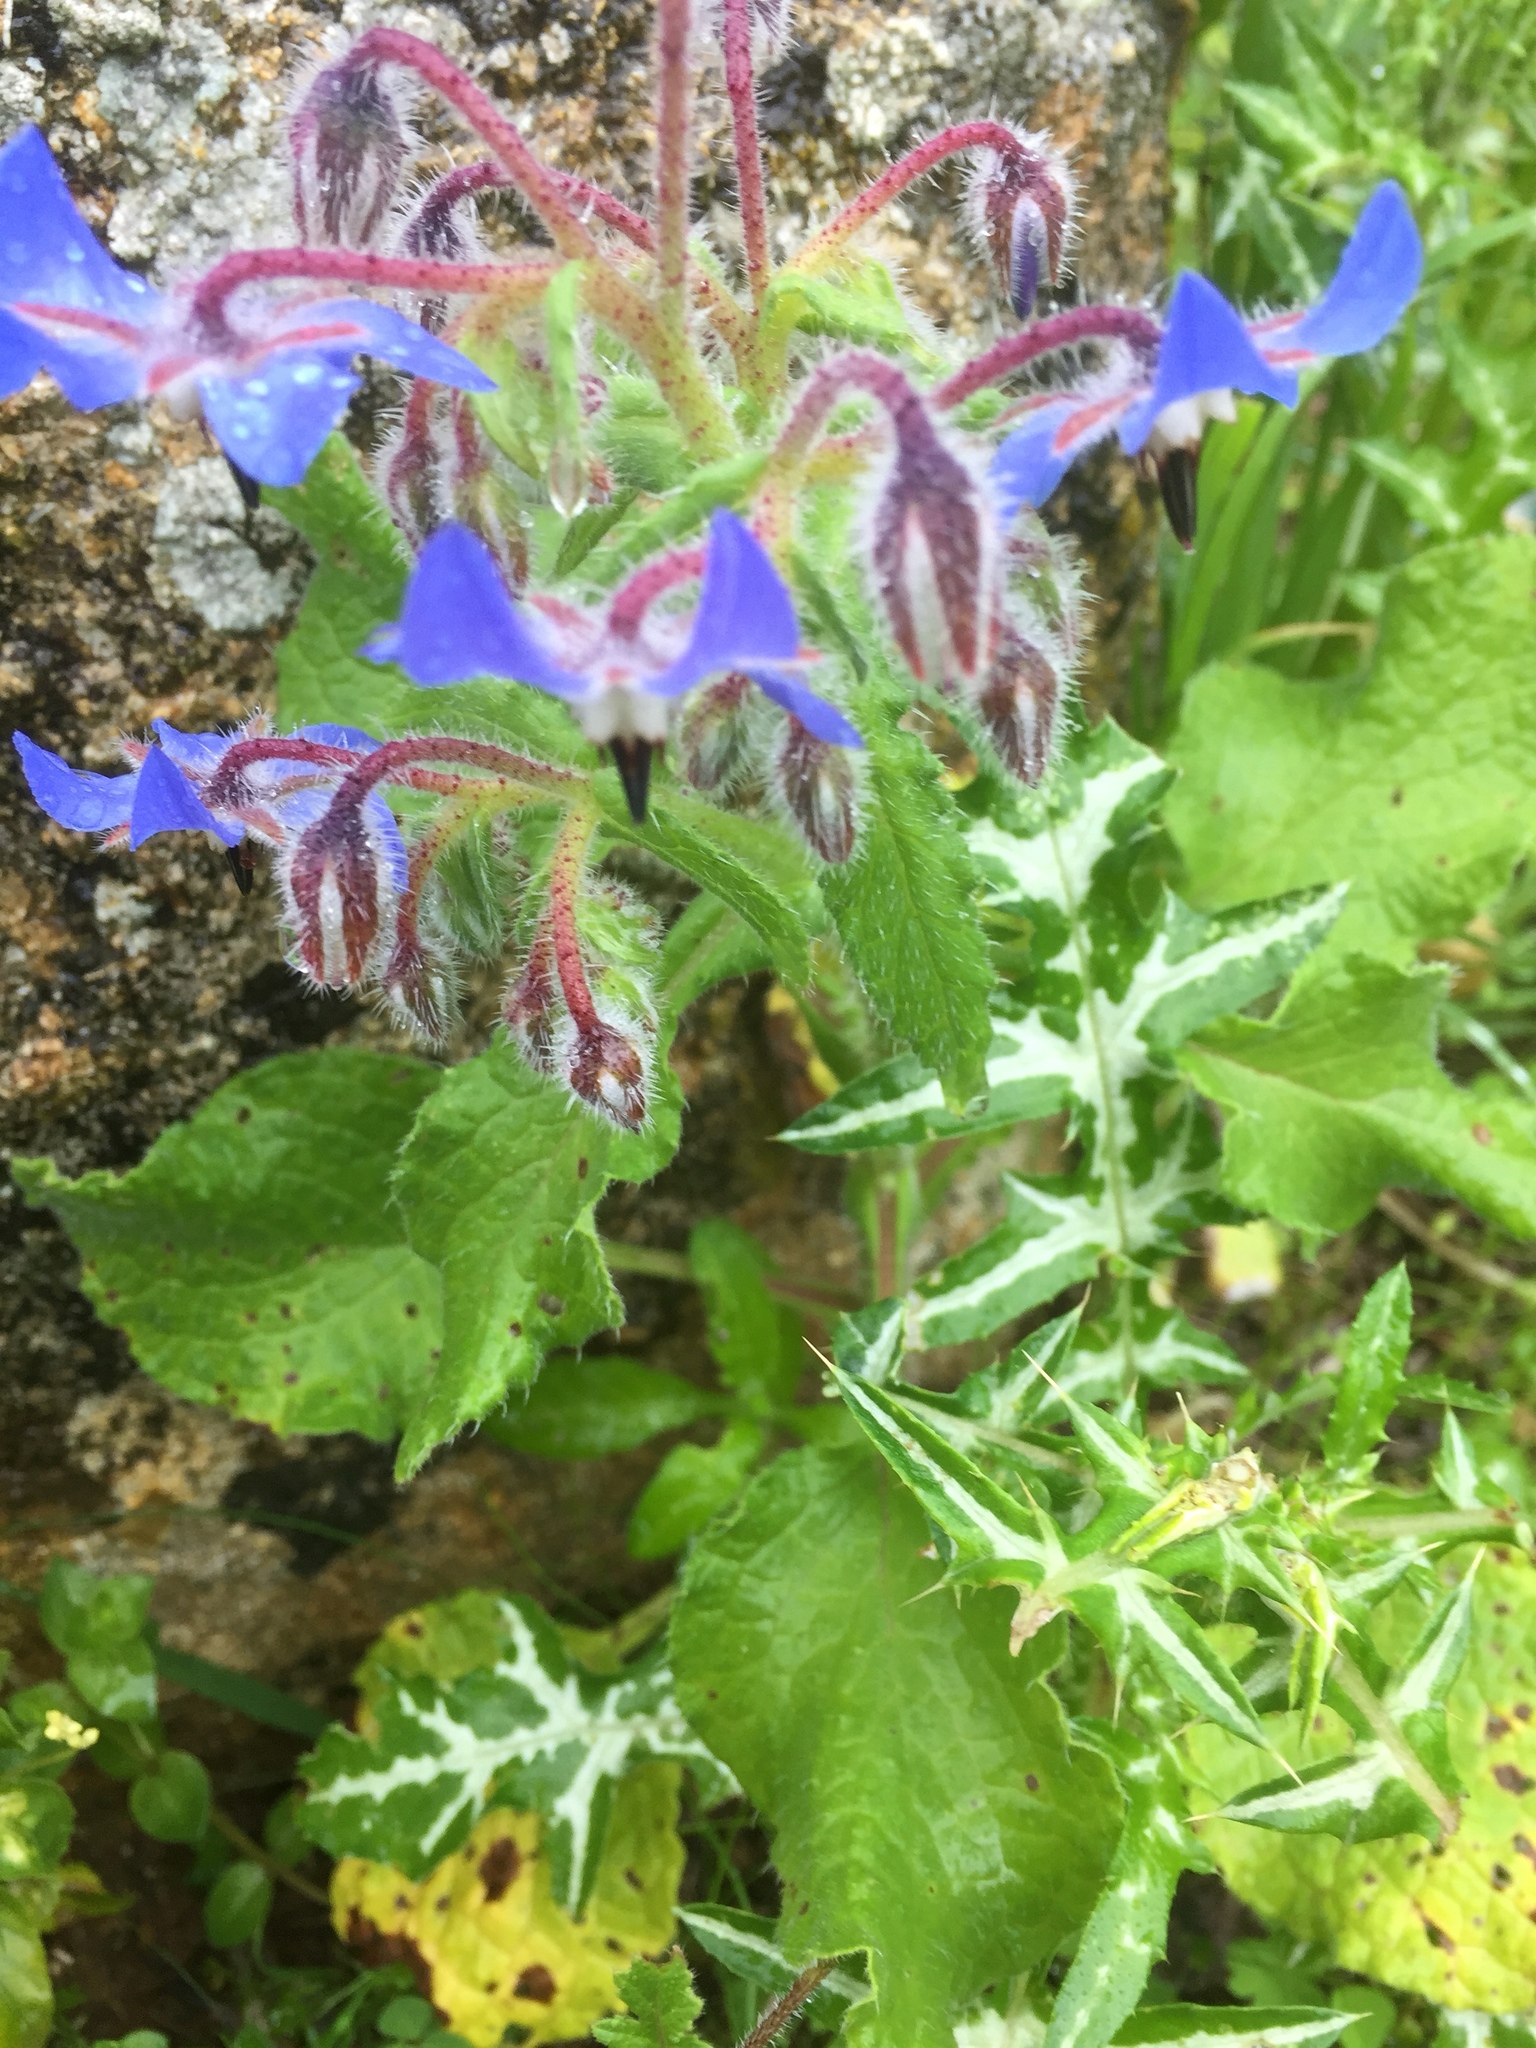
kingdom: Plantae
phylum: Tracheophyta
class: Magnoliopsida
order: Boraginales
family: Boraginaceae
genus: Borago
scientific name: Borago officinalis
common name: Borage
